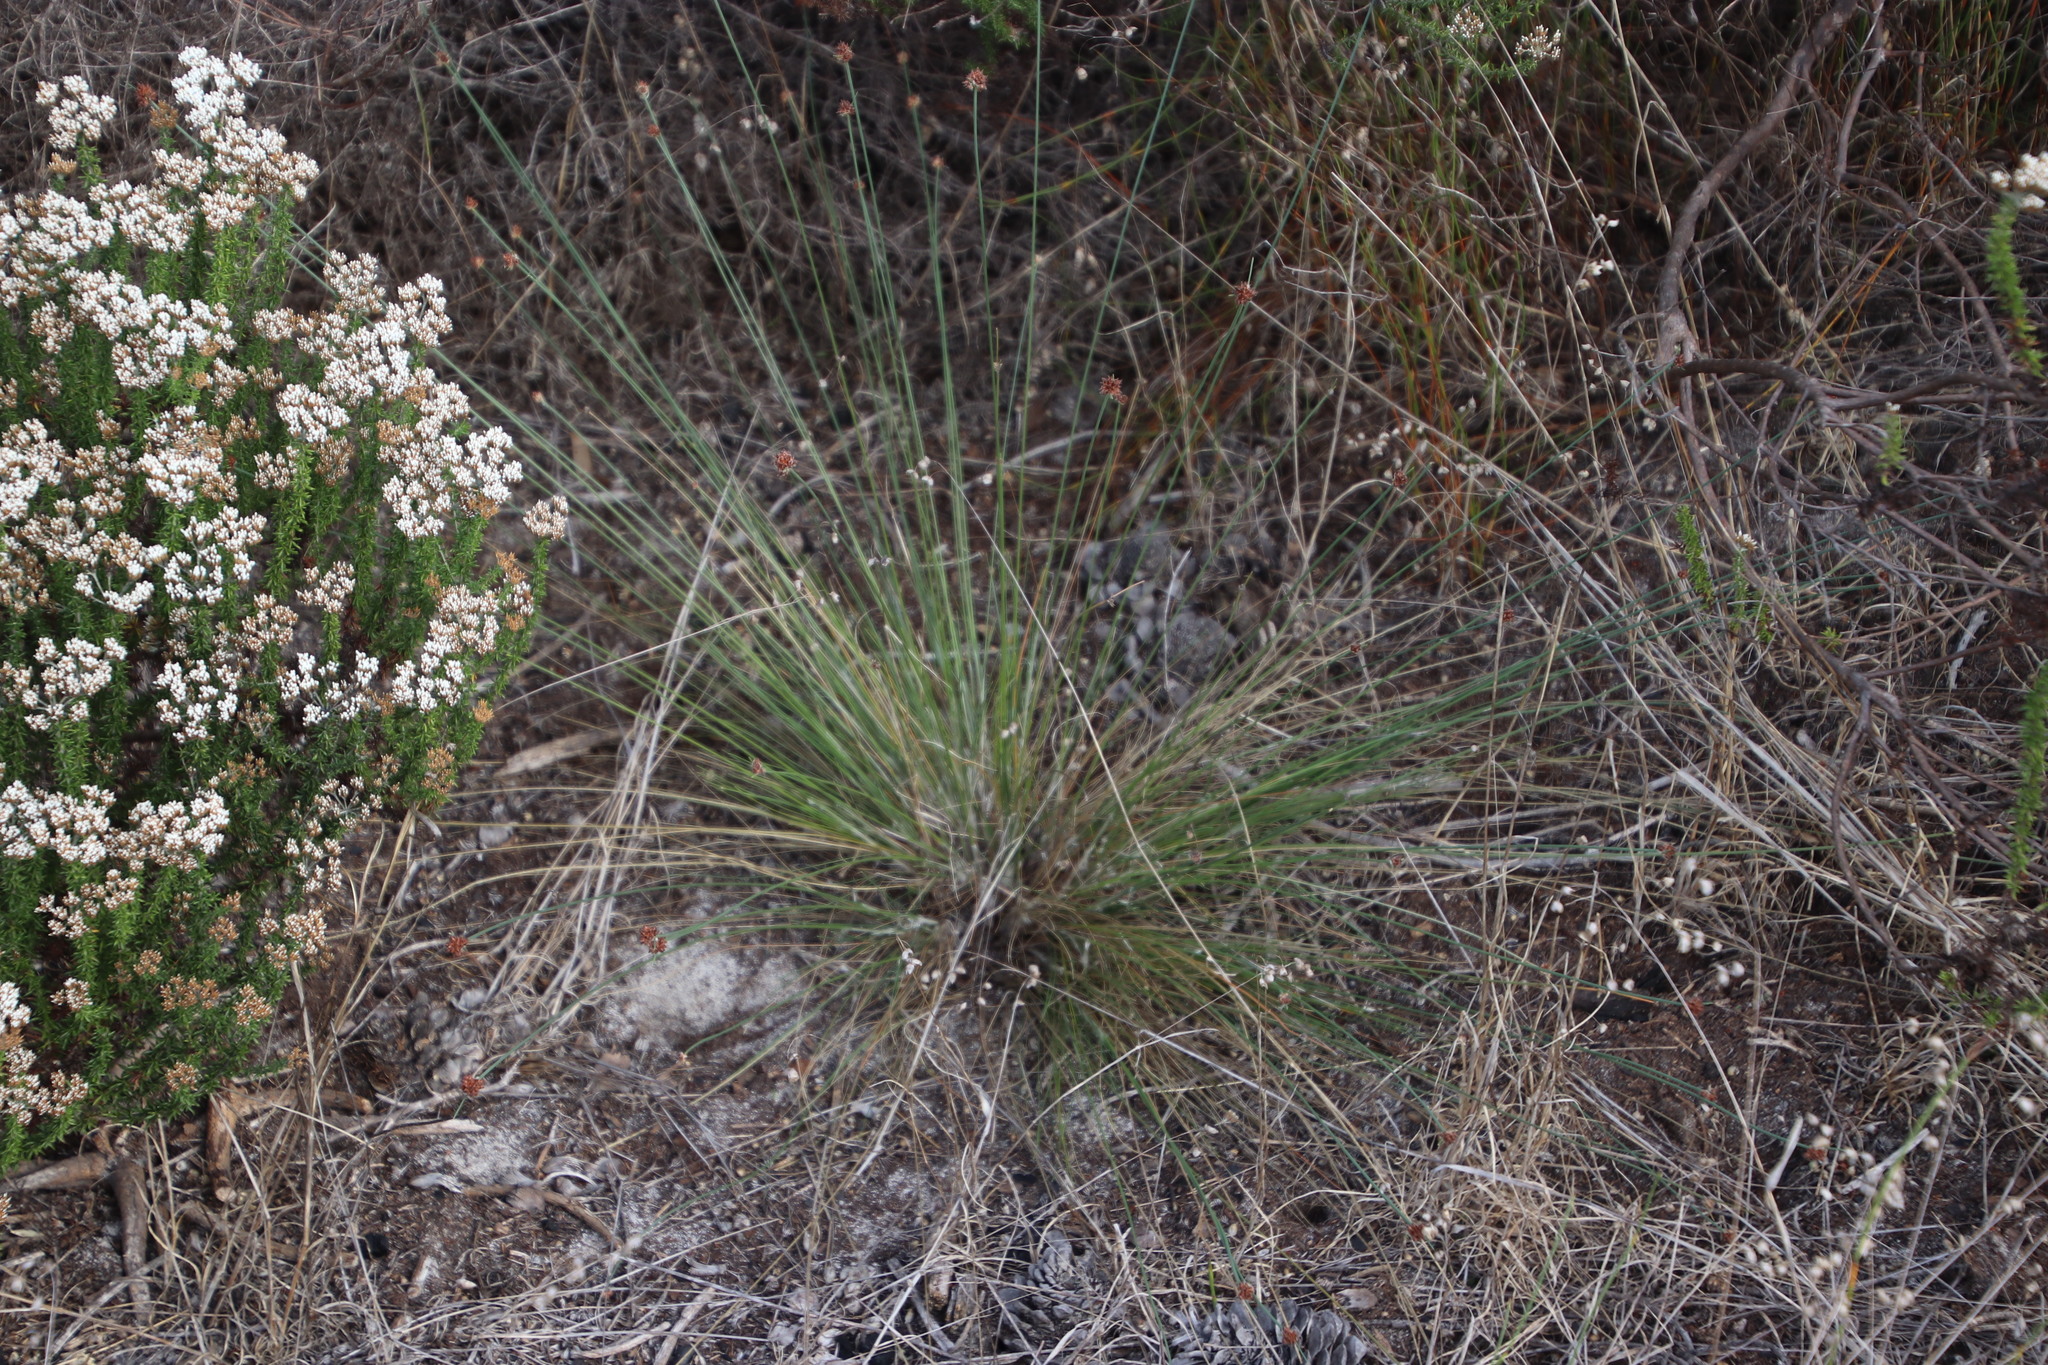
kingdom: Plantae
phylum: Tracheophyta
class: Liliopsida
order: Poales
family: Cyperaceae
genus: Ficinia
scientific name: Ficinia gracilis
